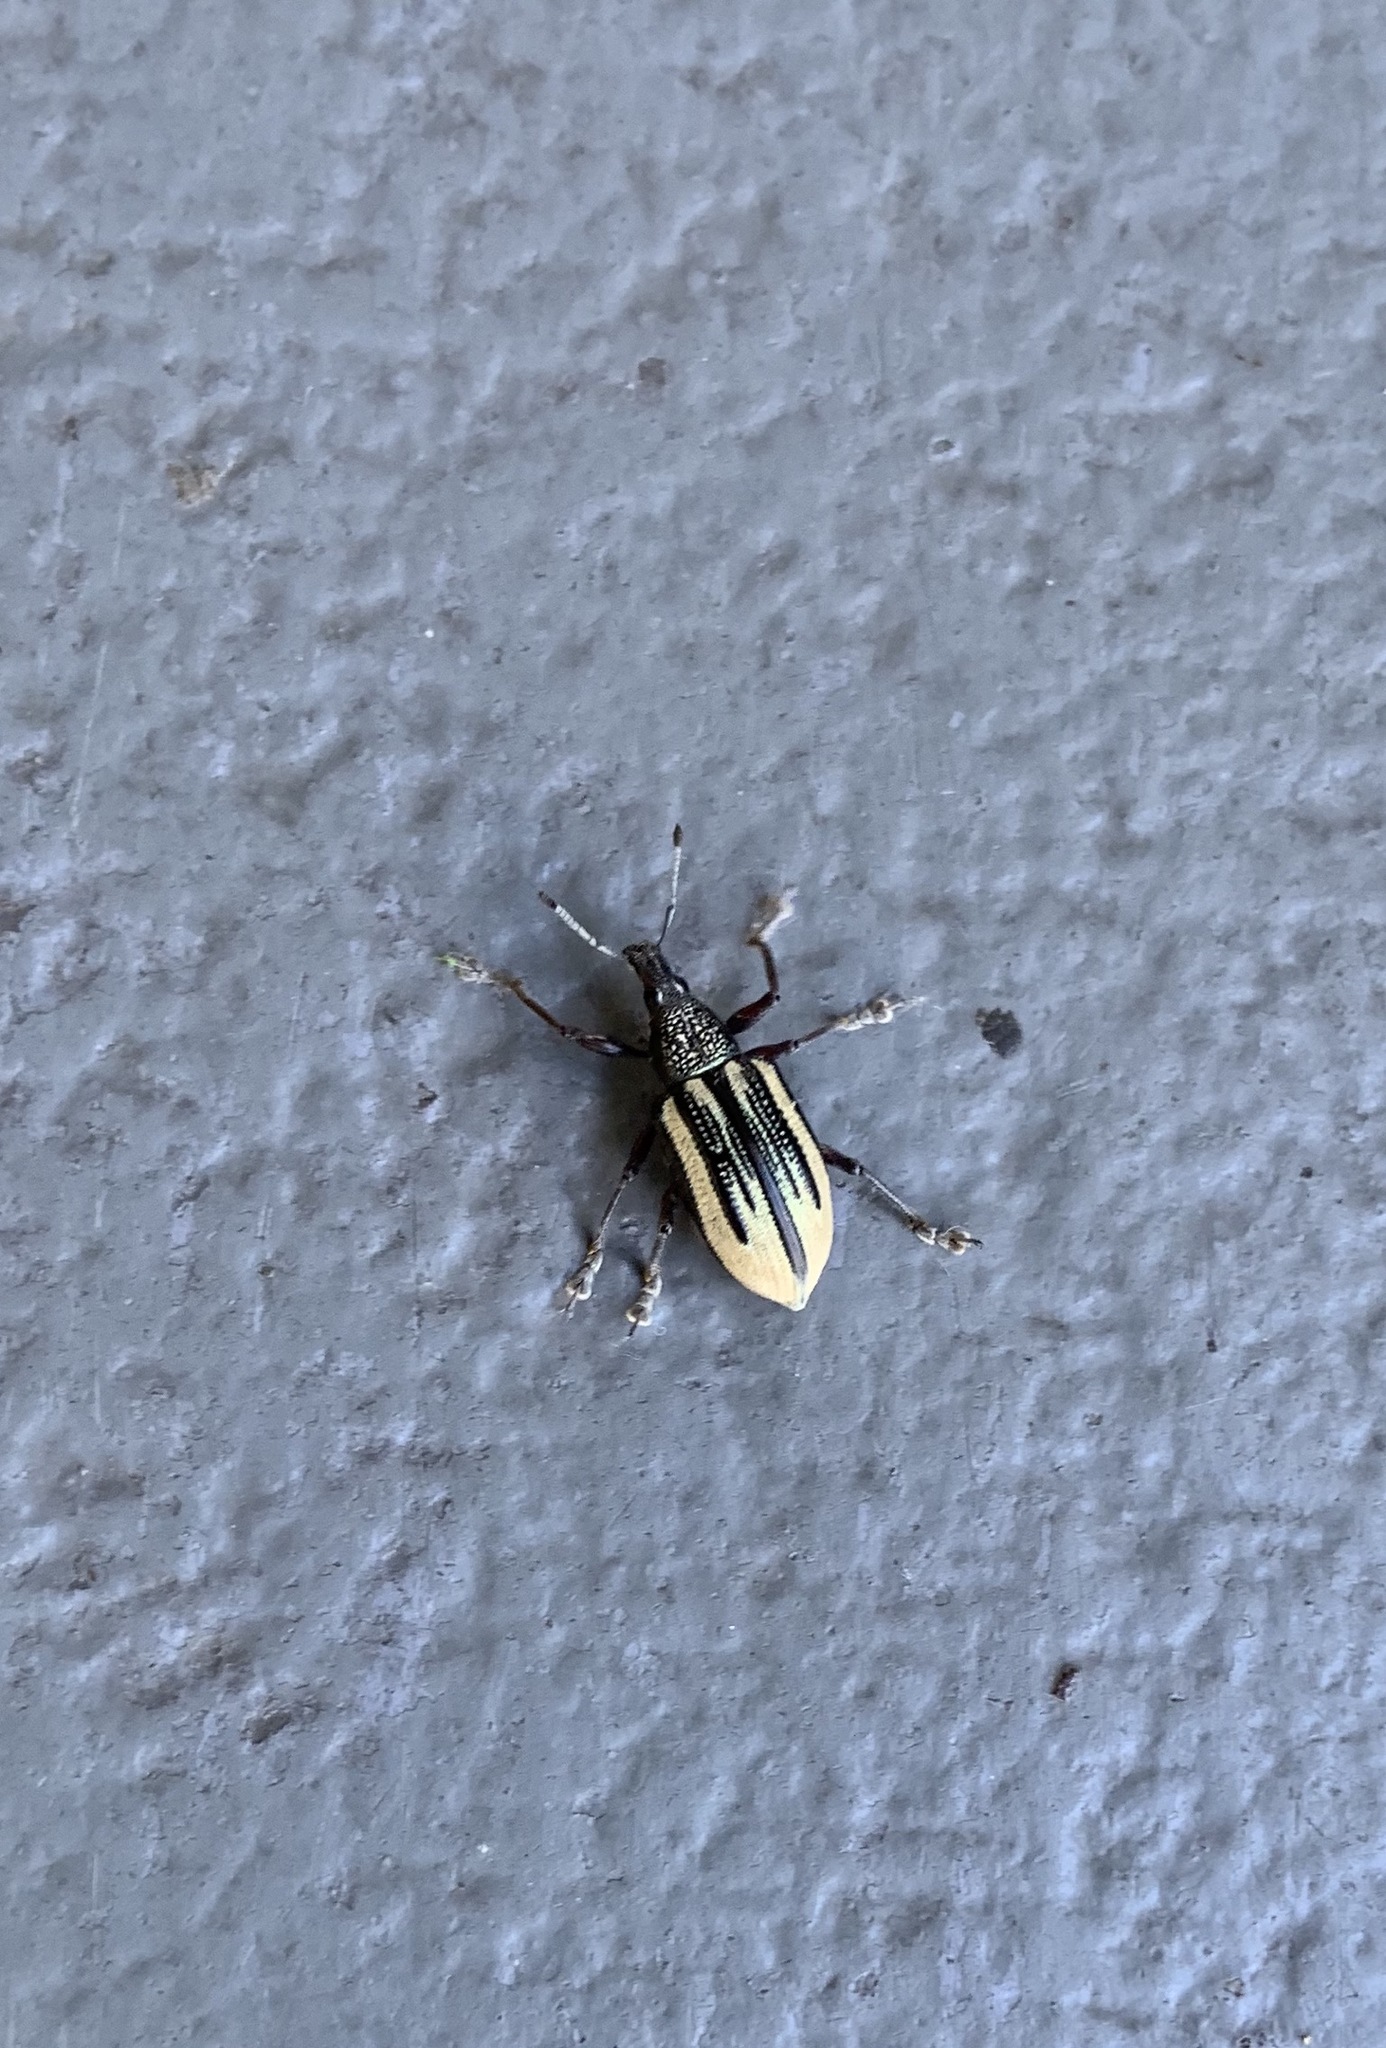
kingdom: Animalia
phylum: Arthropoda
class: Insecta
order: Coleoptera
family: Curculionidae
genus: Diaprepes
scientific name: Diaprepes abbreviatus
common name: Root weevil
